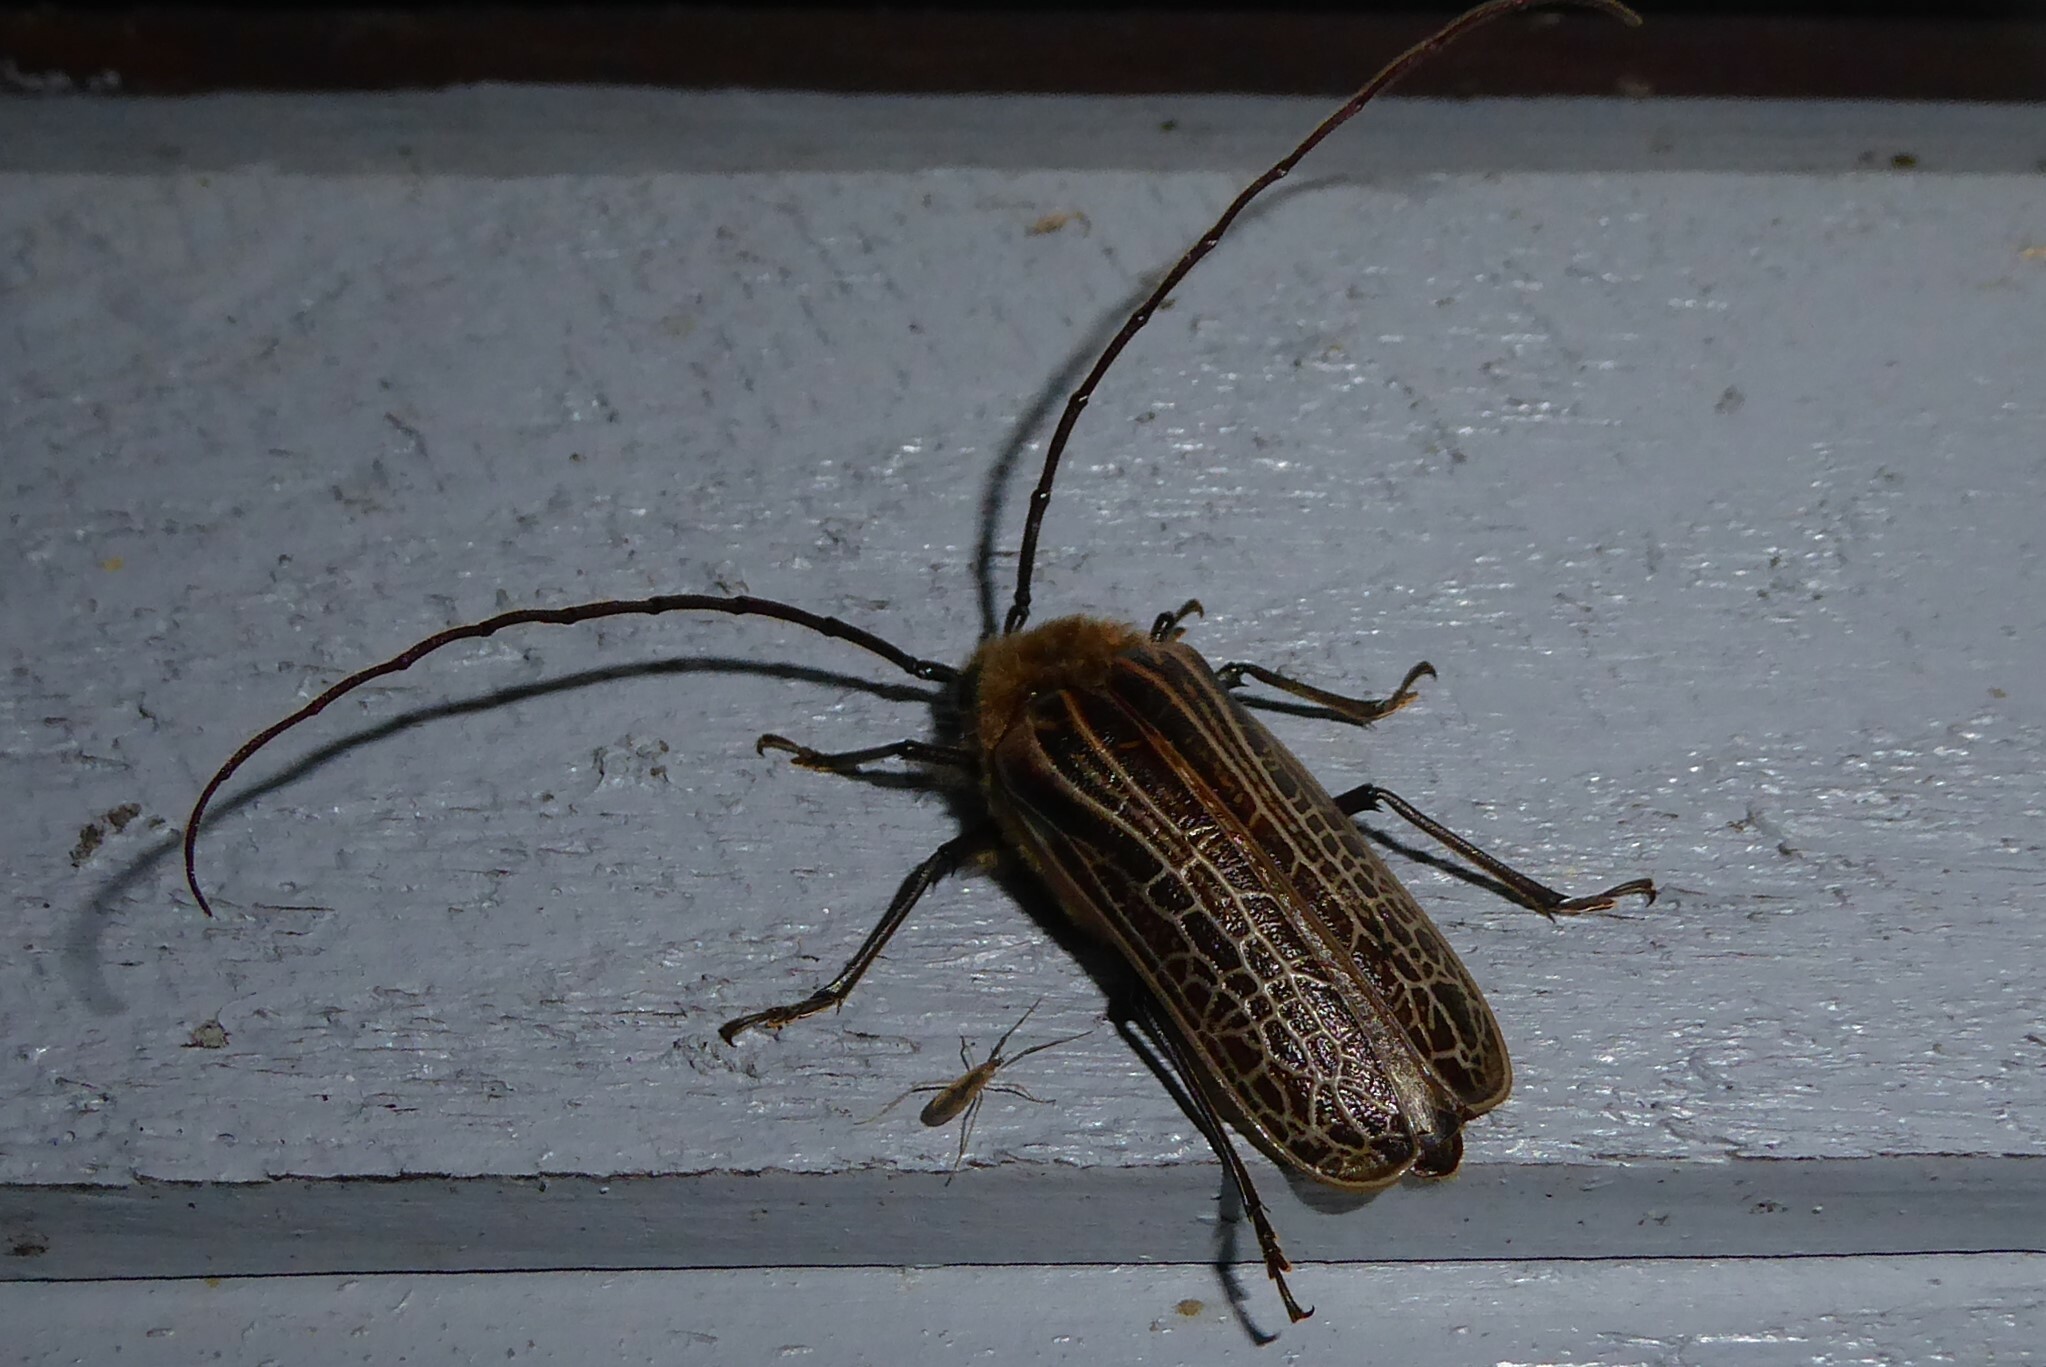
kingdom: Animalia
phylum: Arthropoda
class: Insecta
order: Coleoptera
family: Cerambycidae
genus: Prionoplus
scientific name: Prionoplus reticularis
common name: Huhu beetle
